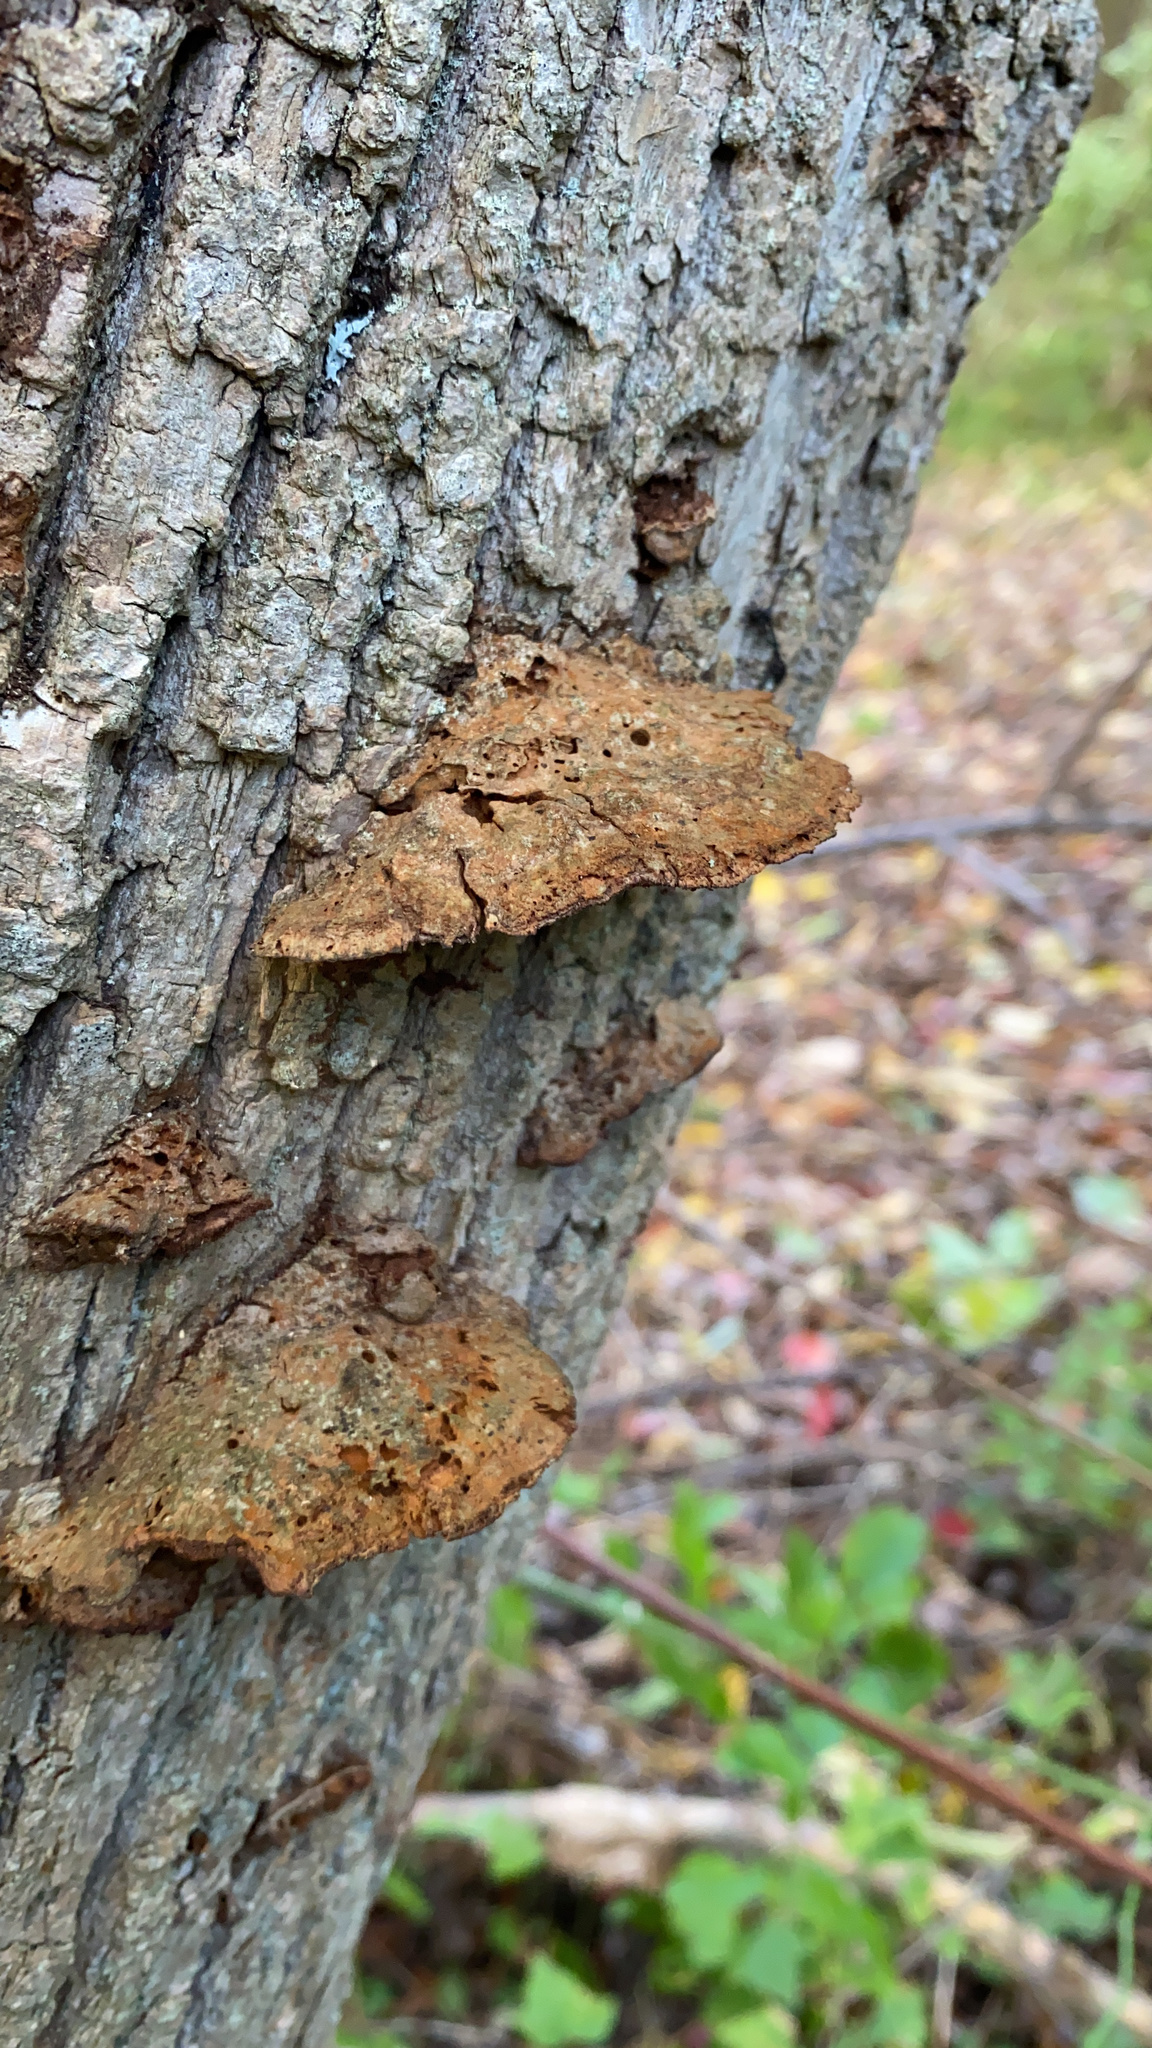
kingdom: Fungi
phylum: Basidiomycota
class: Agaricomycetes
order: Hymenochaetales
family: Hymenochaetaceae
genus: Phellinus
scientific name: Phellinus gilvus
